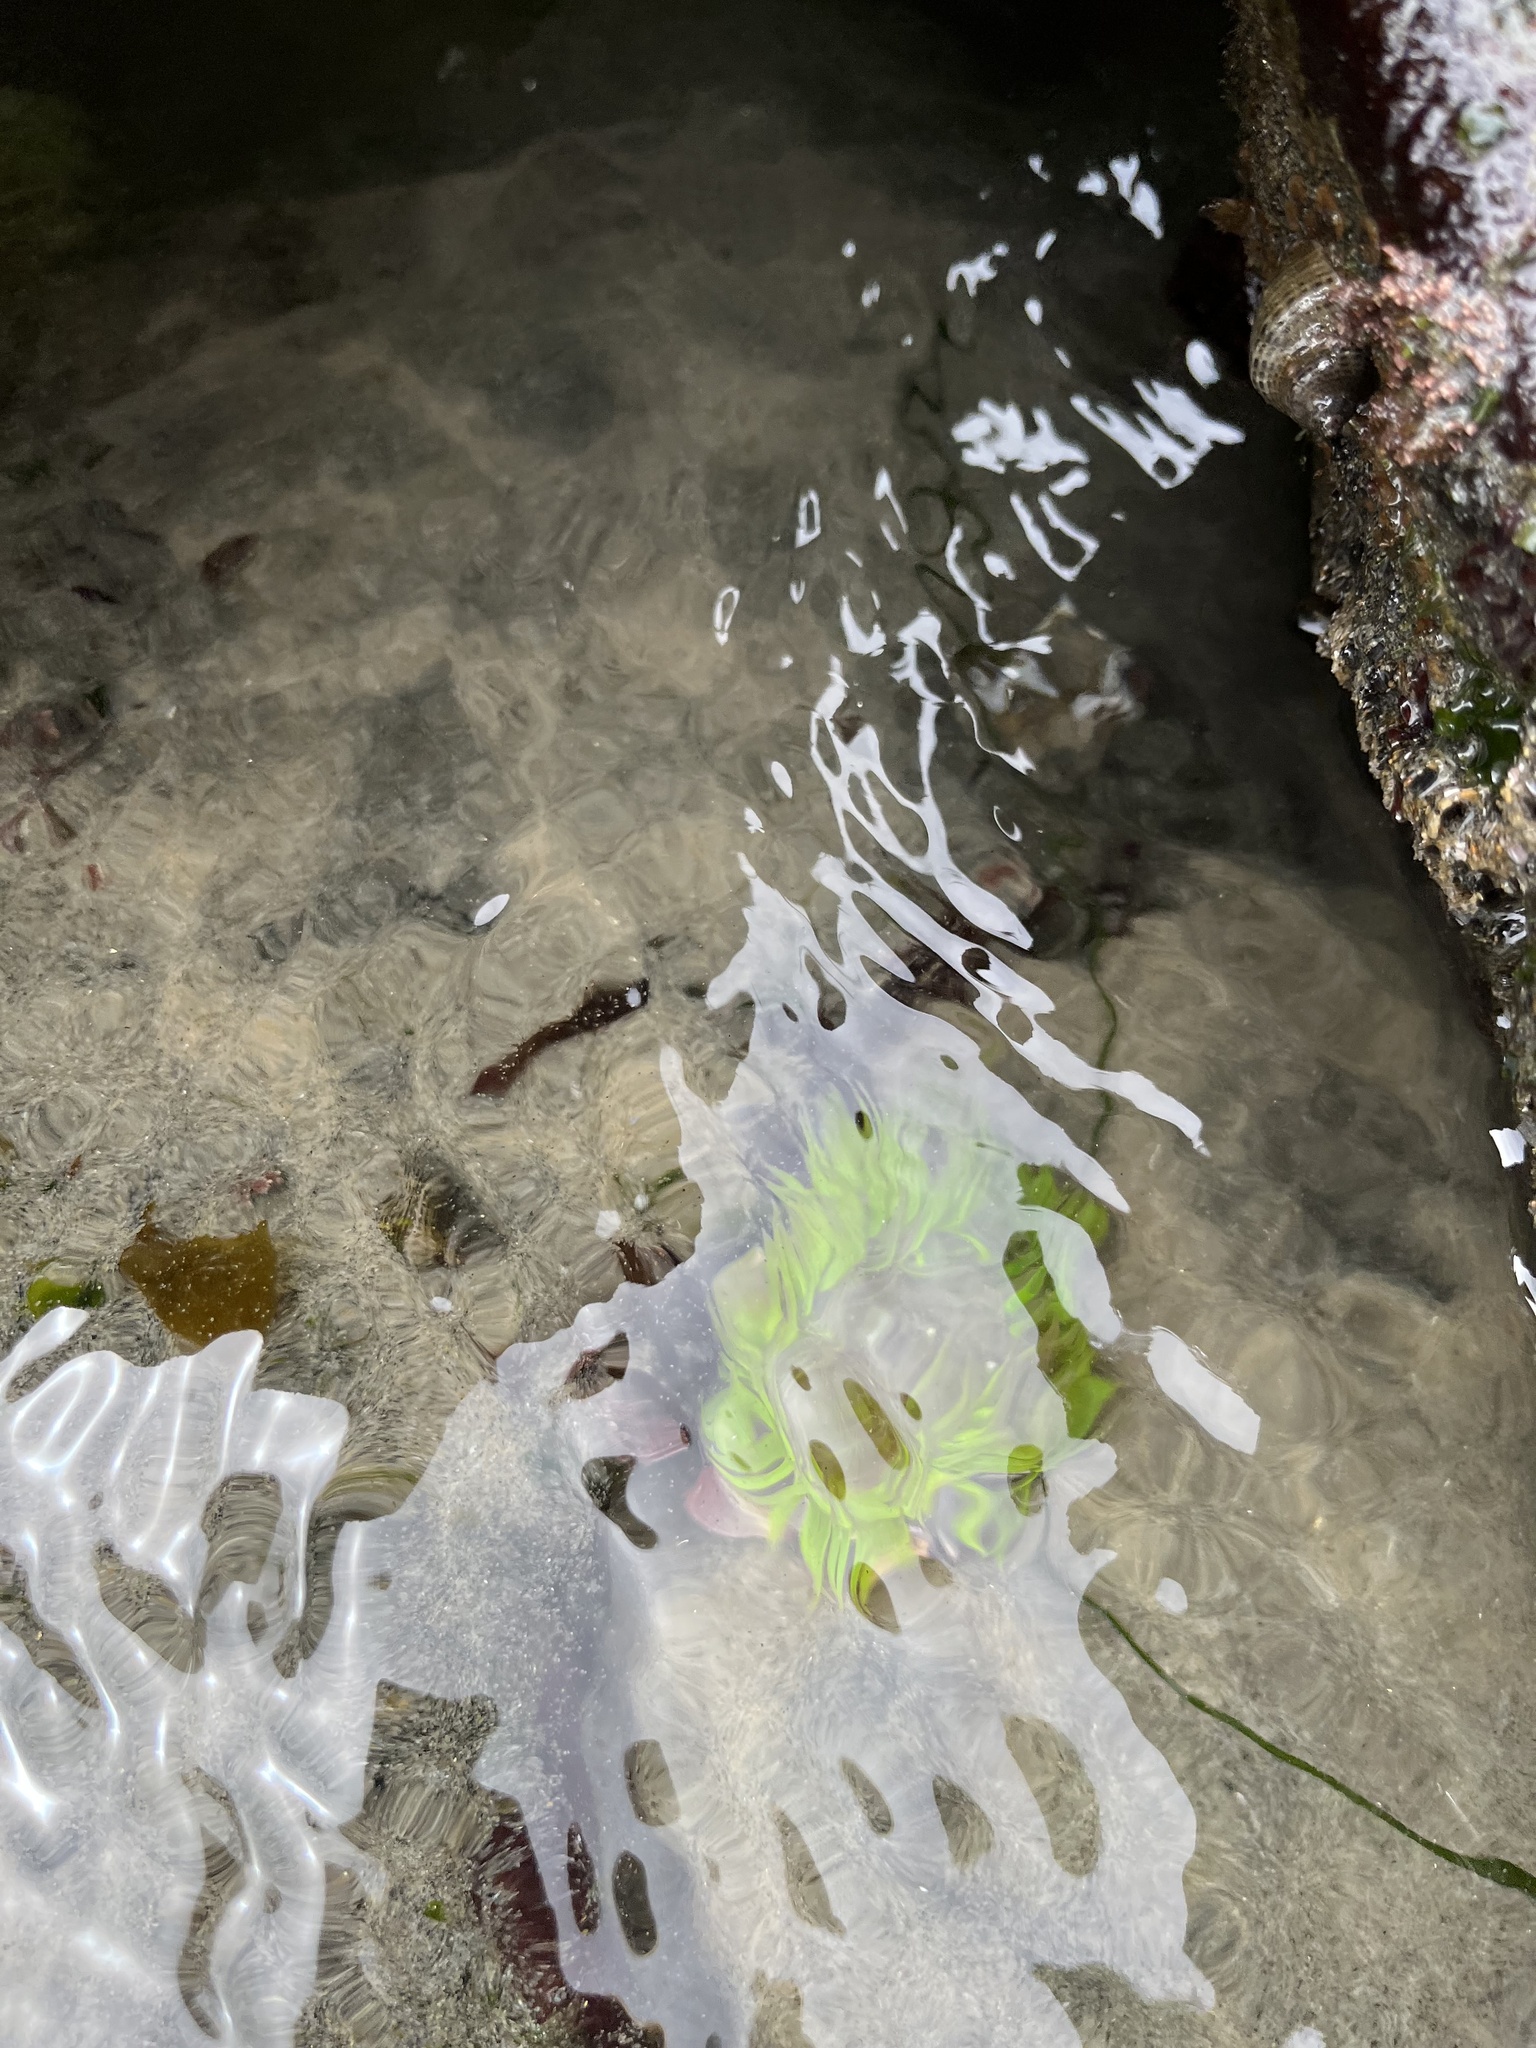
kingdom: Animalia
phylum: Cnidaria
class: Anthozoa
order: Actiniaria
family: Actiniidae
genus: Anthopleura
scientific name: Anthopleura sola
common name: Sun anemone
